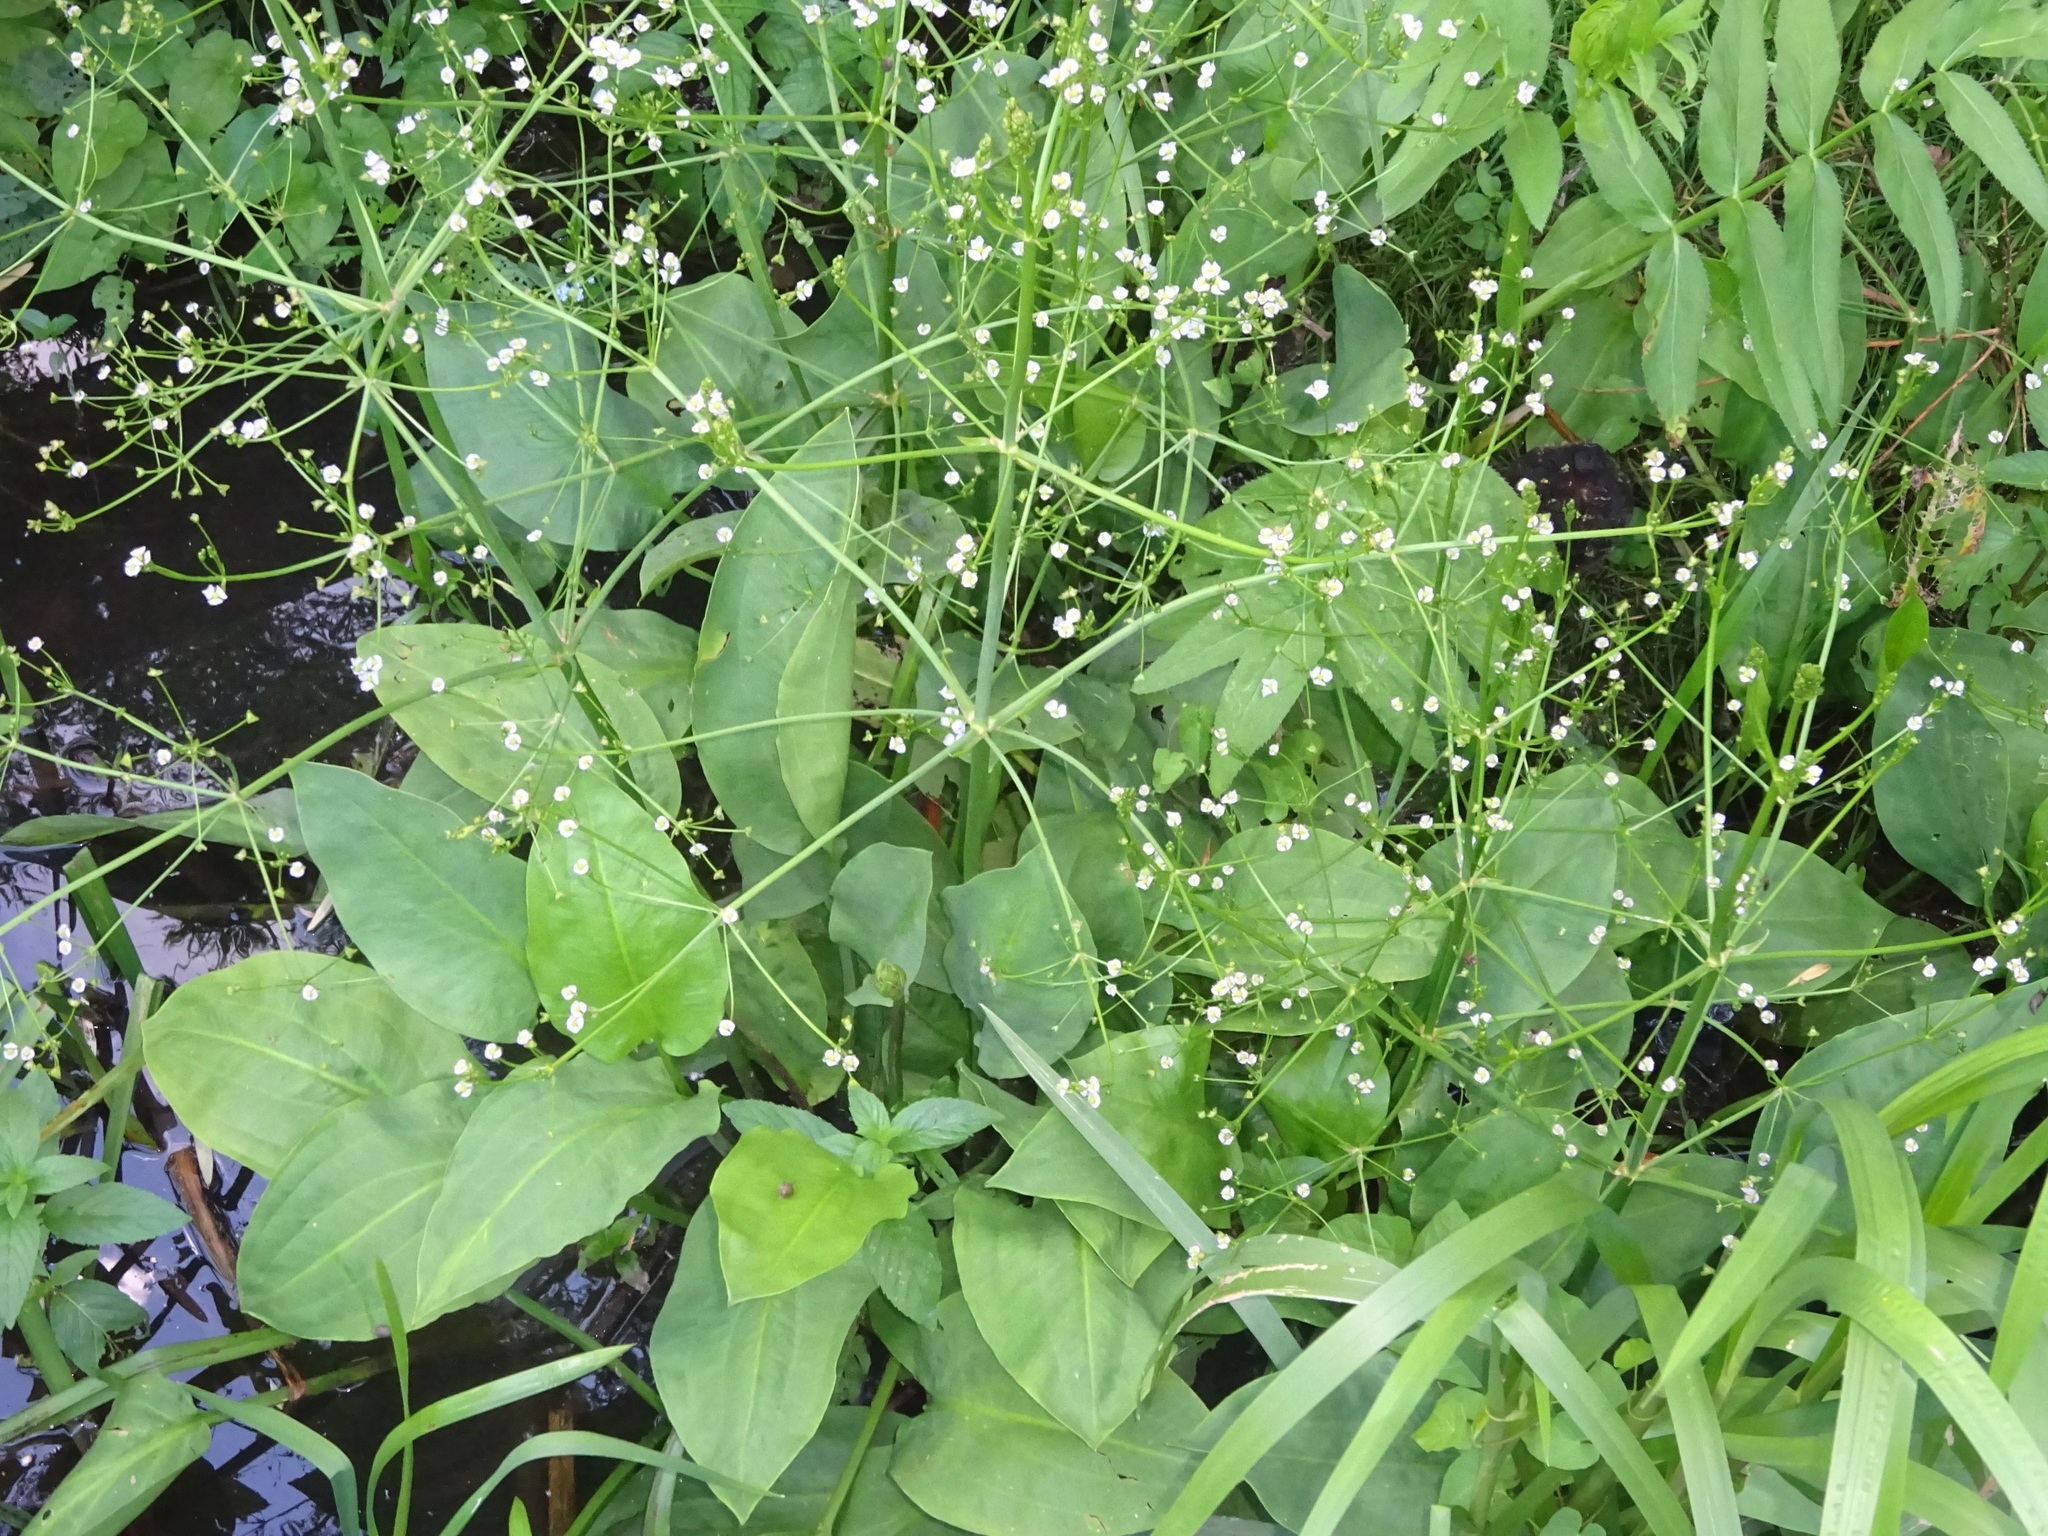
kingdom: Plantae
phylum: Tracheophyta
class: Liliopsida
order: Alismatales
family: Alismataceae
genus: Alisma
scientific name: Alisma plantago-aquatica
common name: Water-plantain
